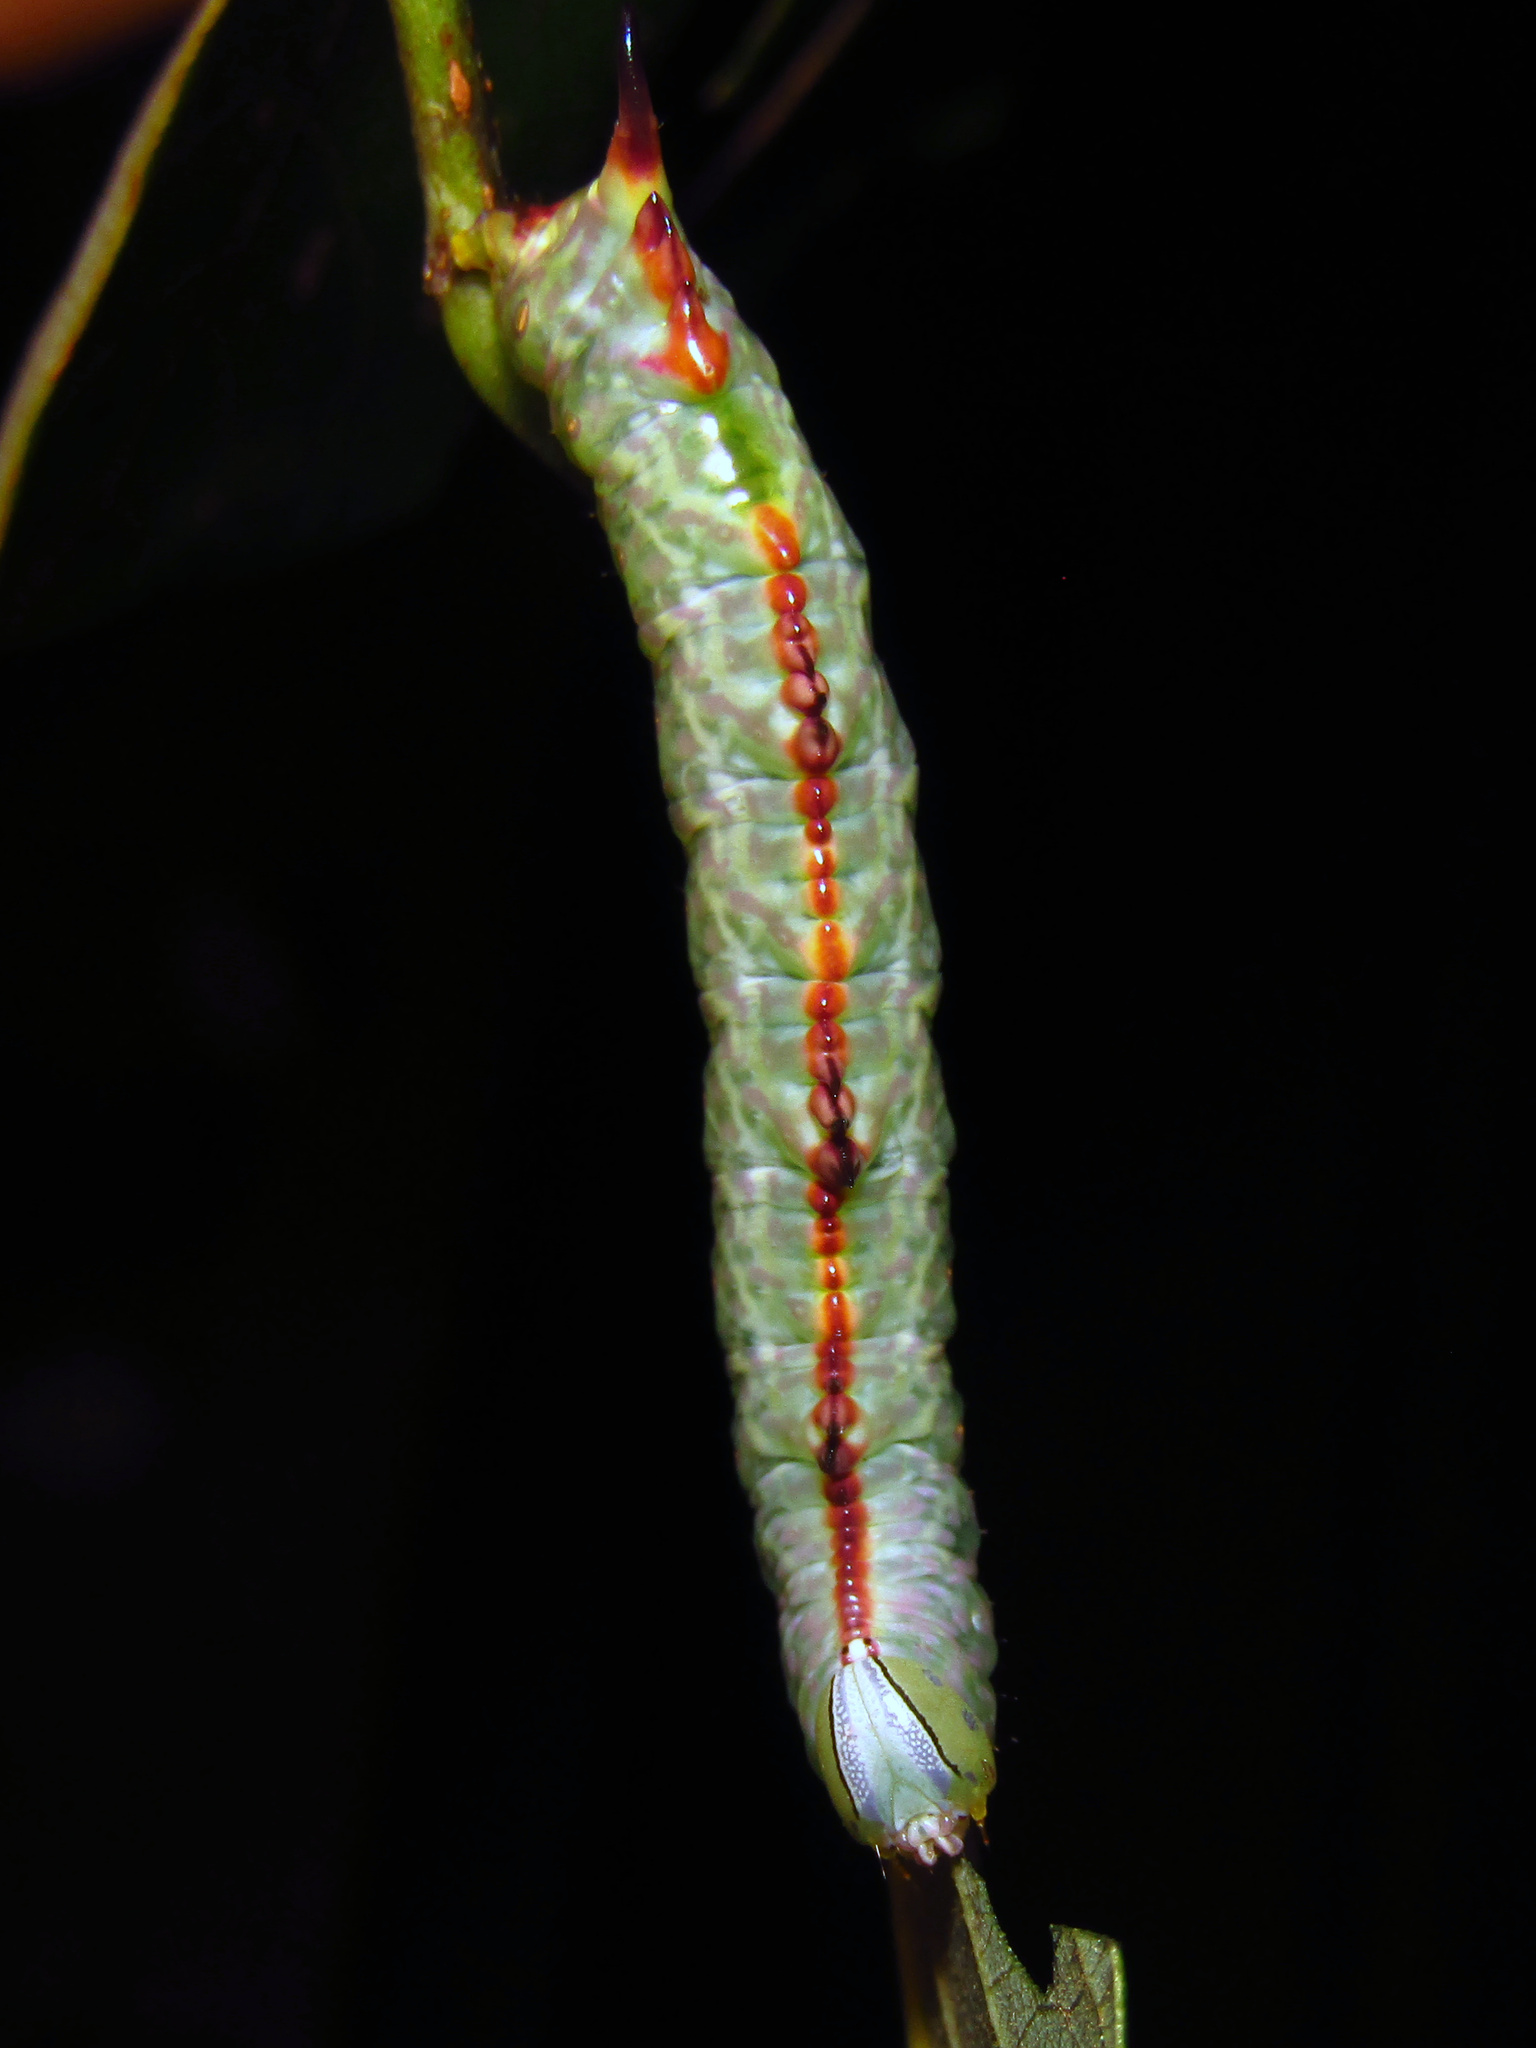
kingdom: Animalia
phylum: Arthropoda
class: Insecta
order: Lepidoptera
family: Notodontidae
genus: Cascera
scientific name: Cascera muscosa
